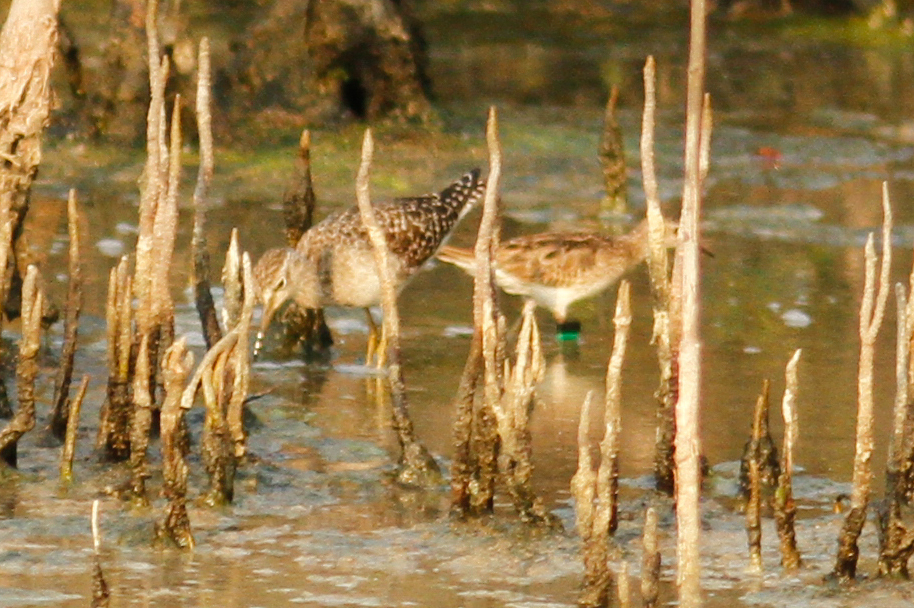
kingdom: Animalia
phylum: Chordata
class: Aves
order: Charadriiformes
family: Scolopacidae
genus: Tringa
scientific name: Tringa glareola
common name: Wood sandpiper
